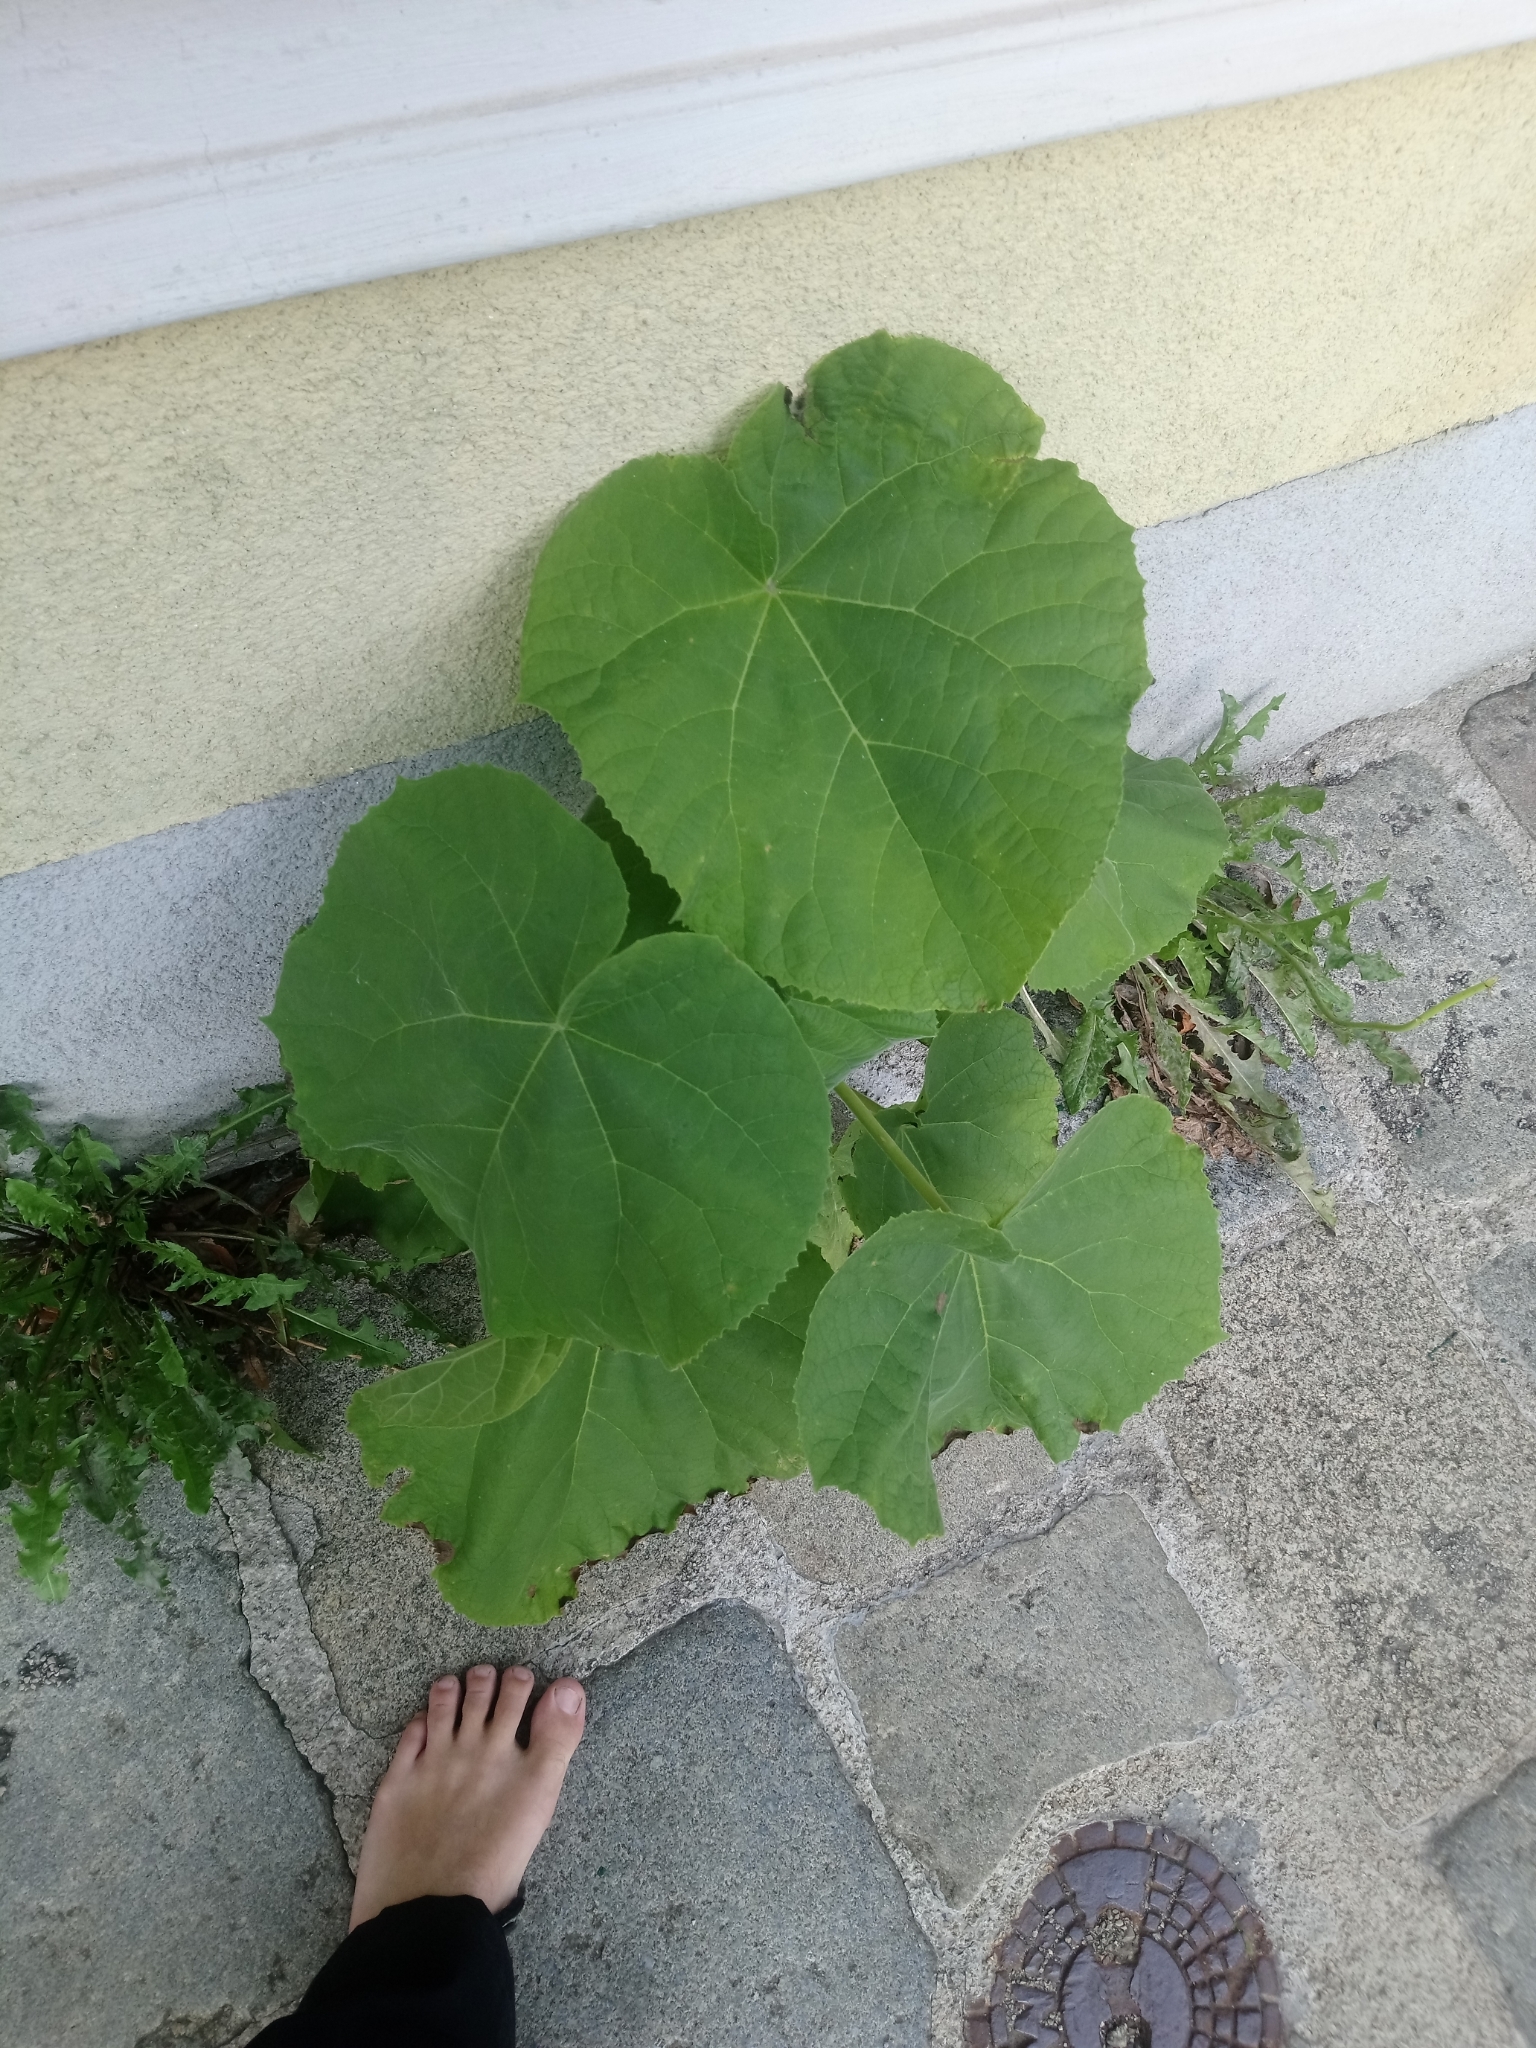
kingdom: Plantae
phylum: Tracheophyta
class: Magnoliopsida
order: Lamiales
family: Paulowniaceae
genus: Paulownia
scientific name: Paulownia tomentosa
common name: Foxglove-tree
